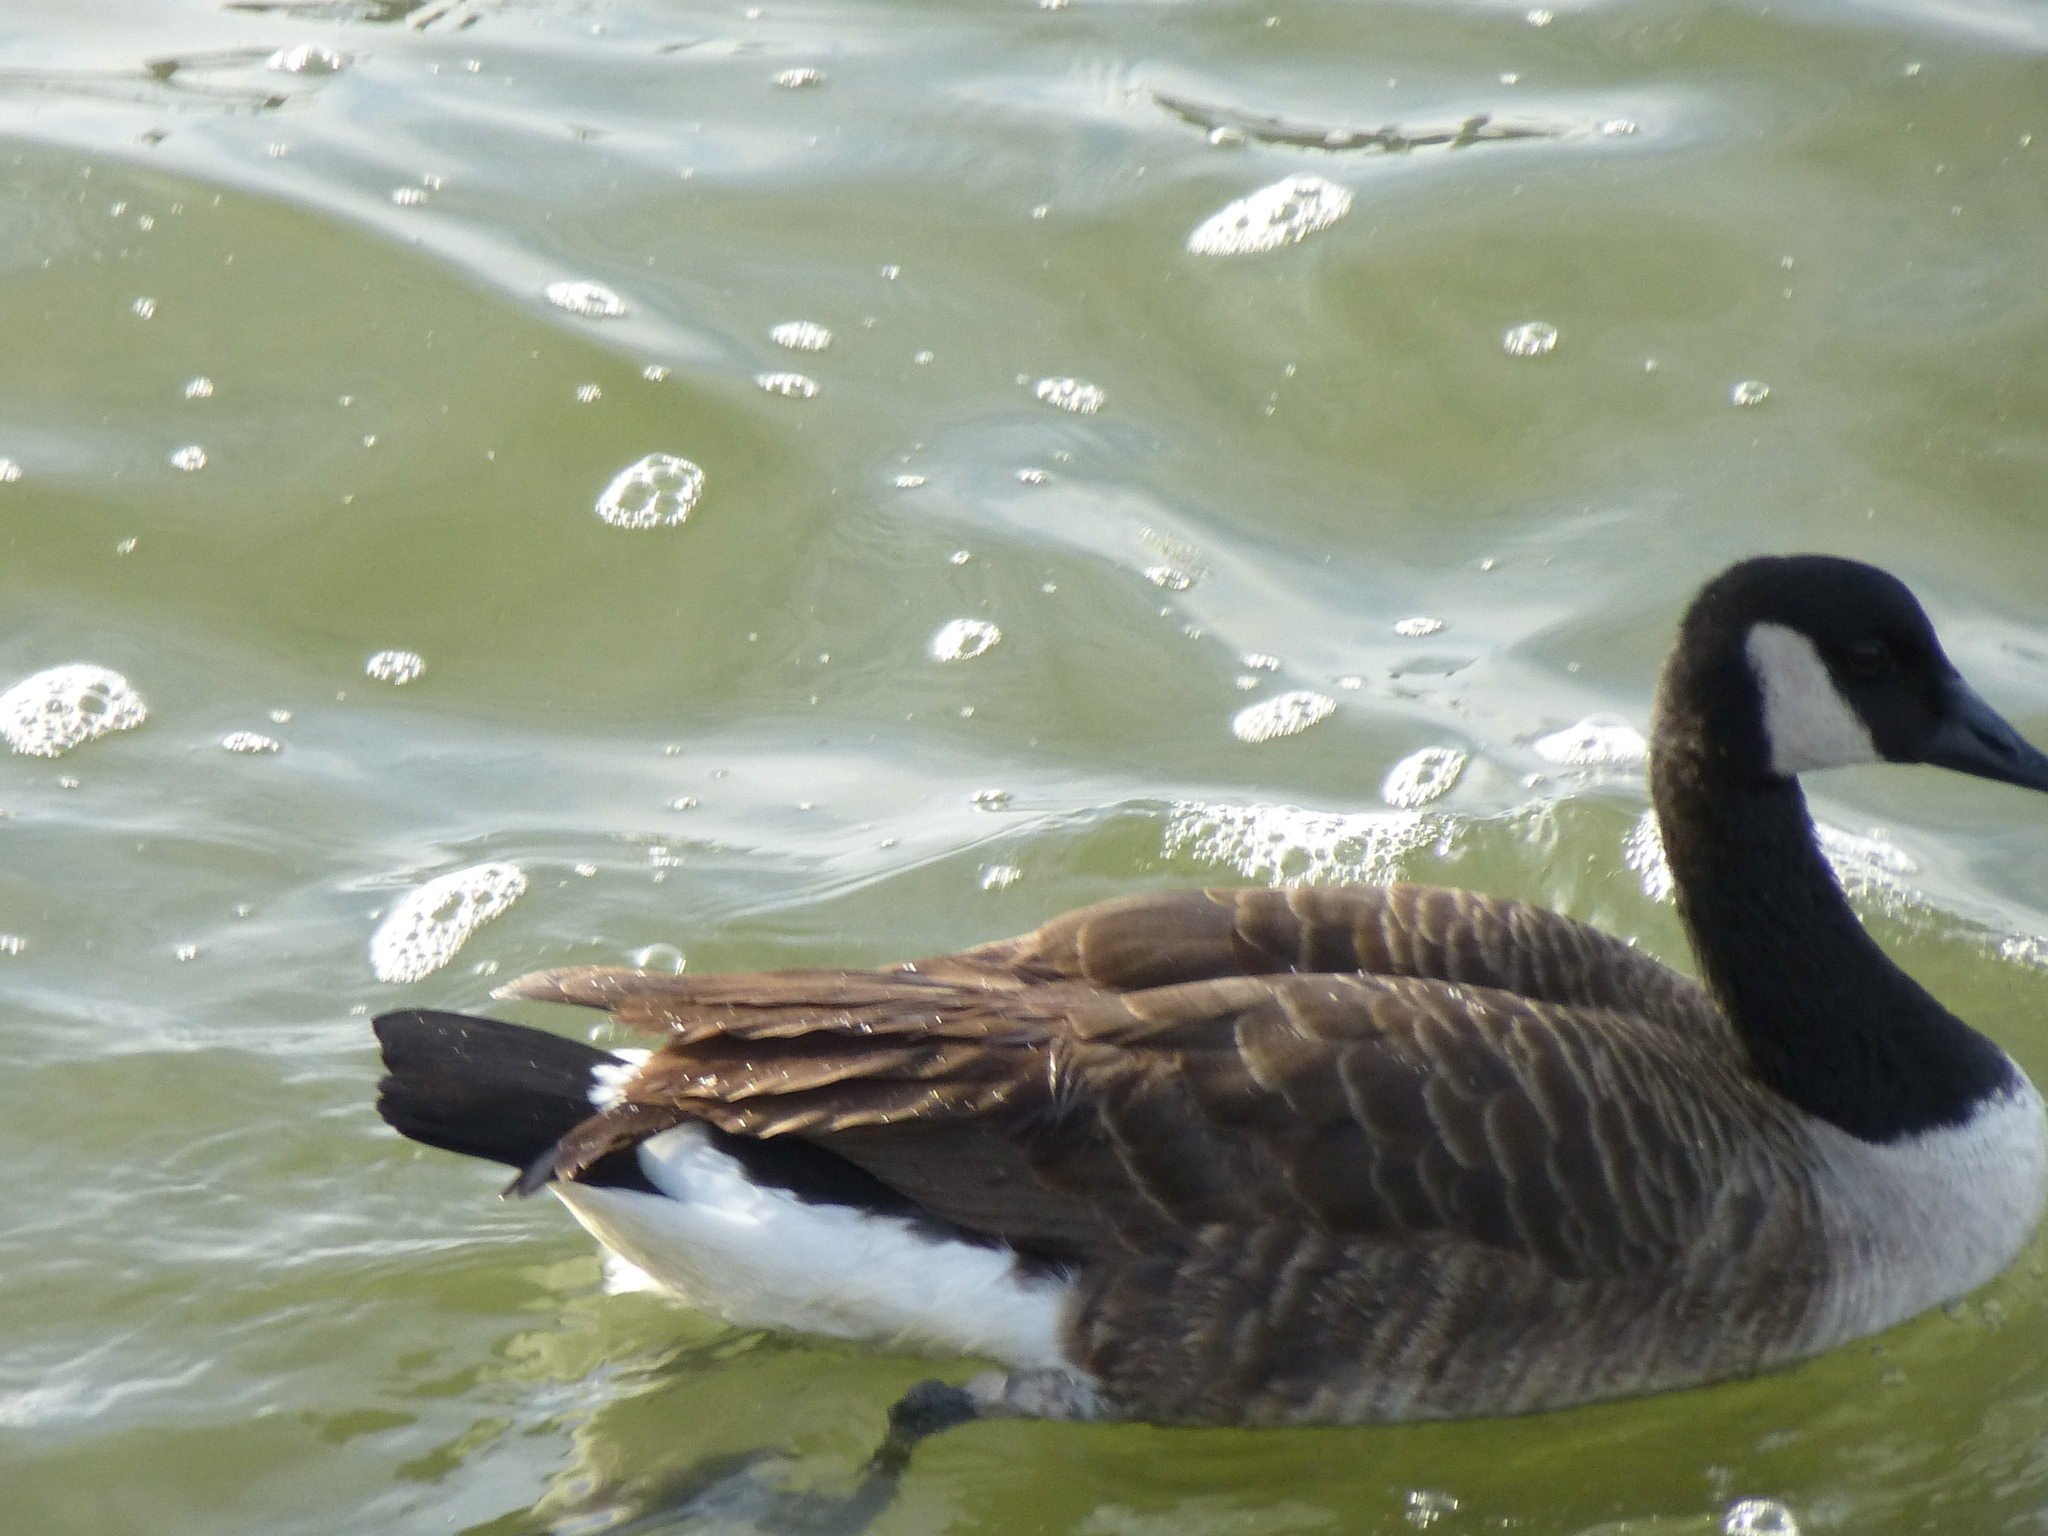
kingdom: Animalia
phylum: Chordata
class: Aves
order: Anseriformes
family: Anatidae
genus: Branta
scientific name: Branta canadensis
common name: Canada goose
